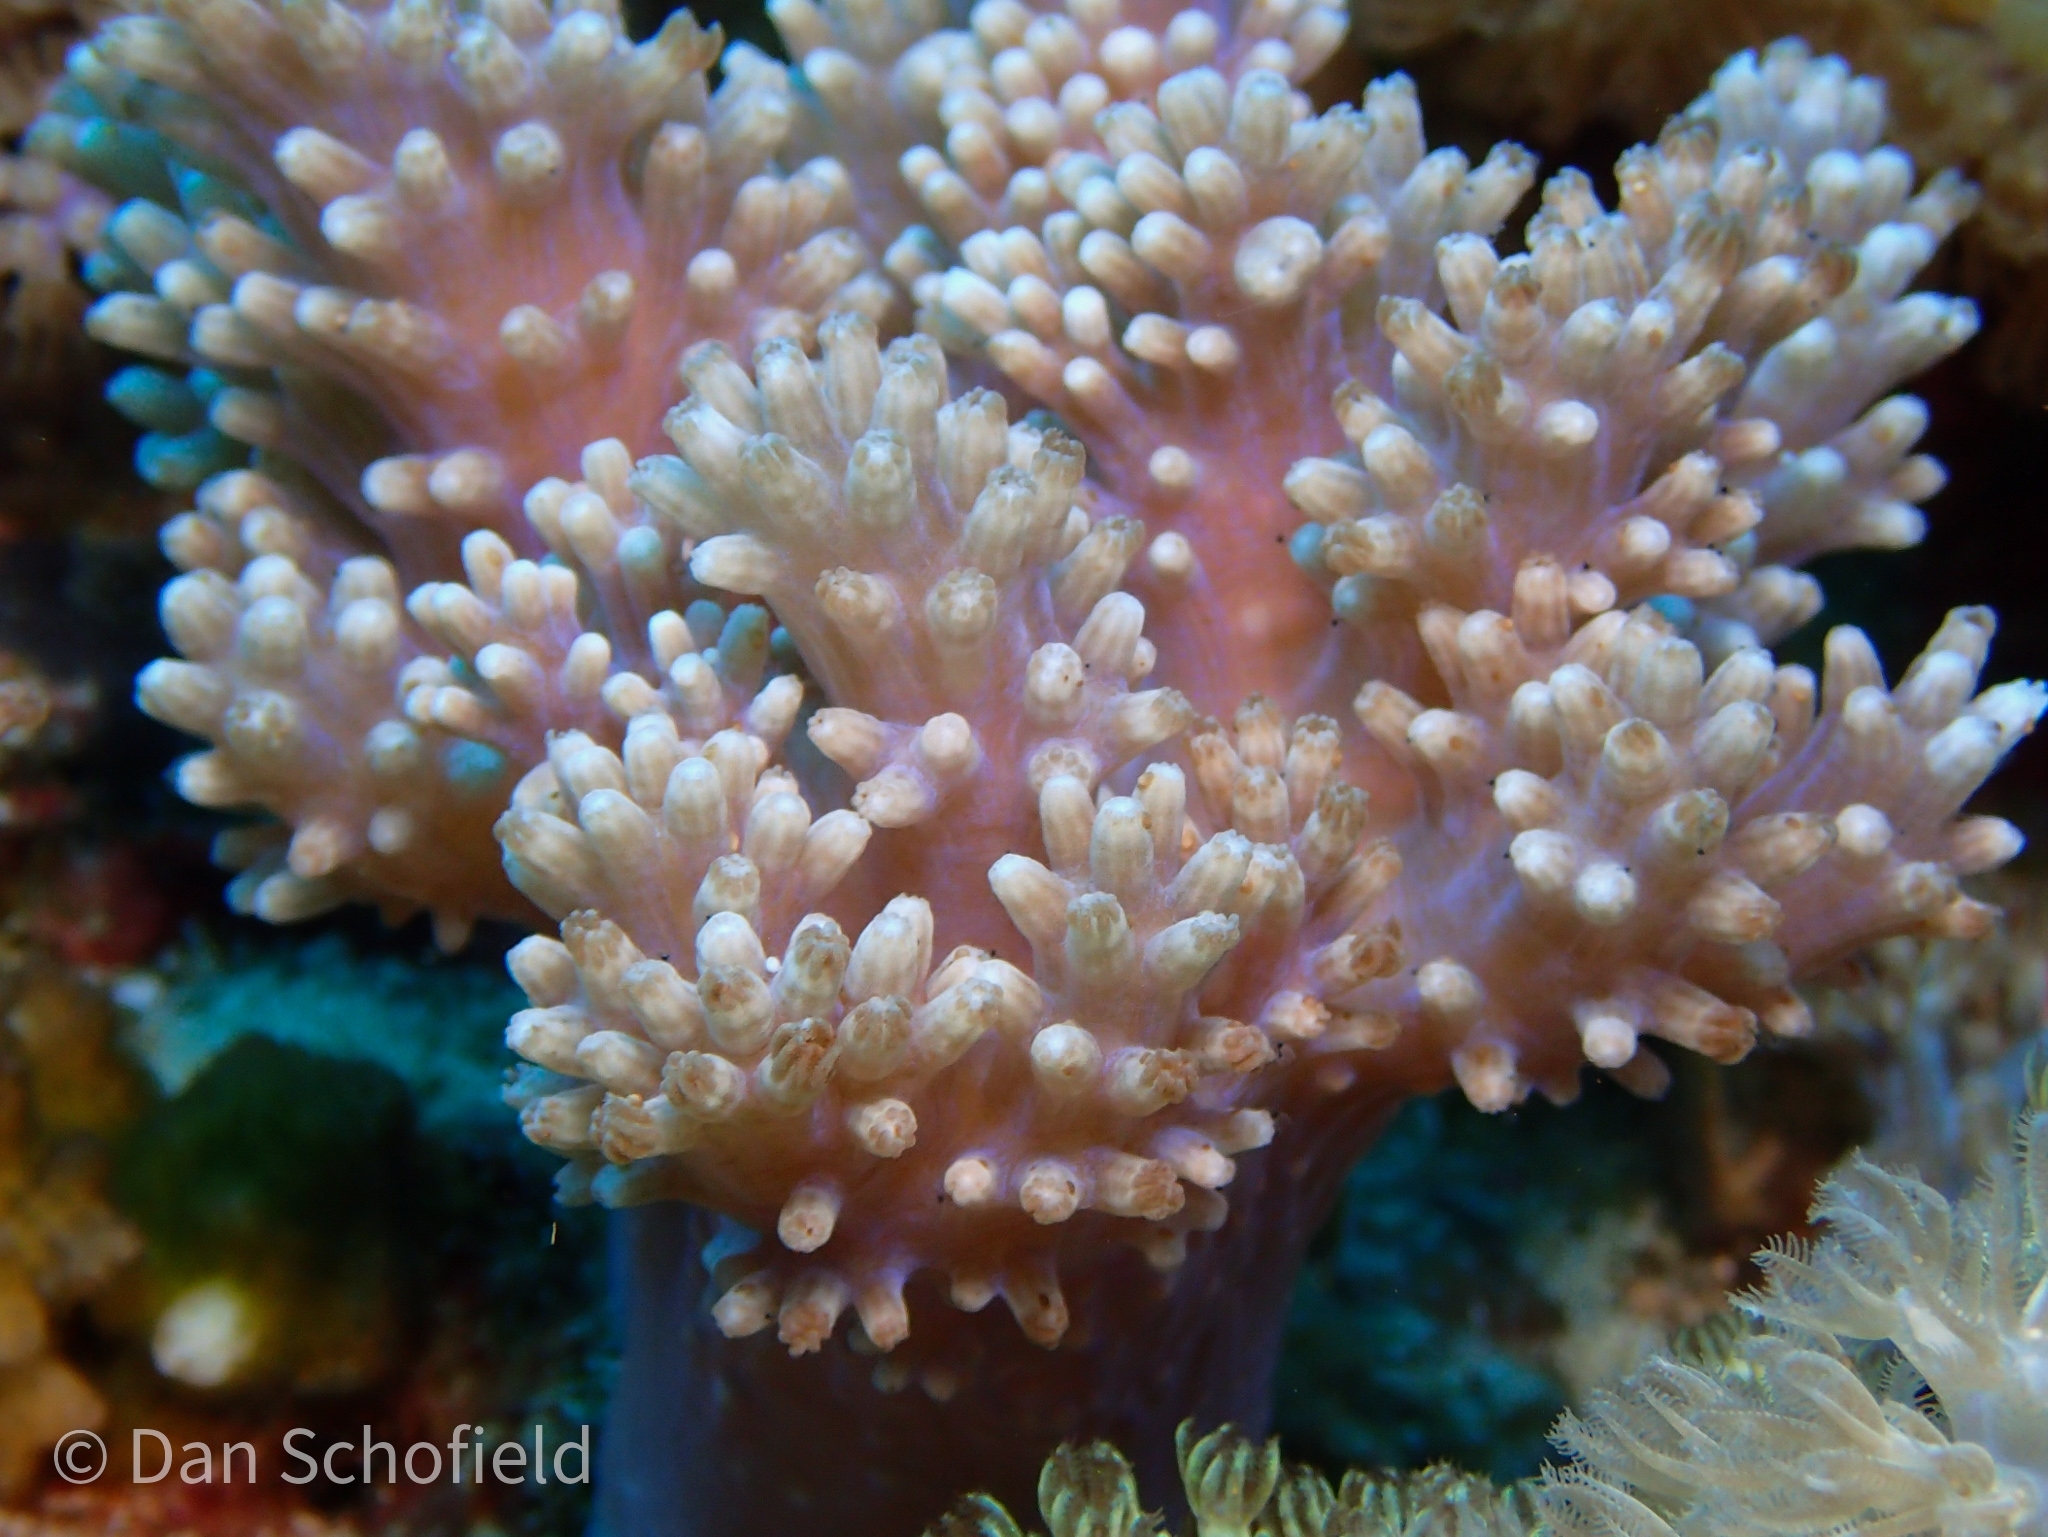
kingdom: Animalia
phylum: Cnidaria
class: Anthozoa
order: Malacalcyonacea
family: Xeniidae
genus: Conglomeratusclera
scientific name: Conglomeratusclera coerulea
